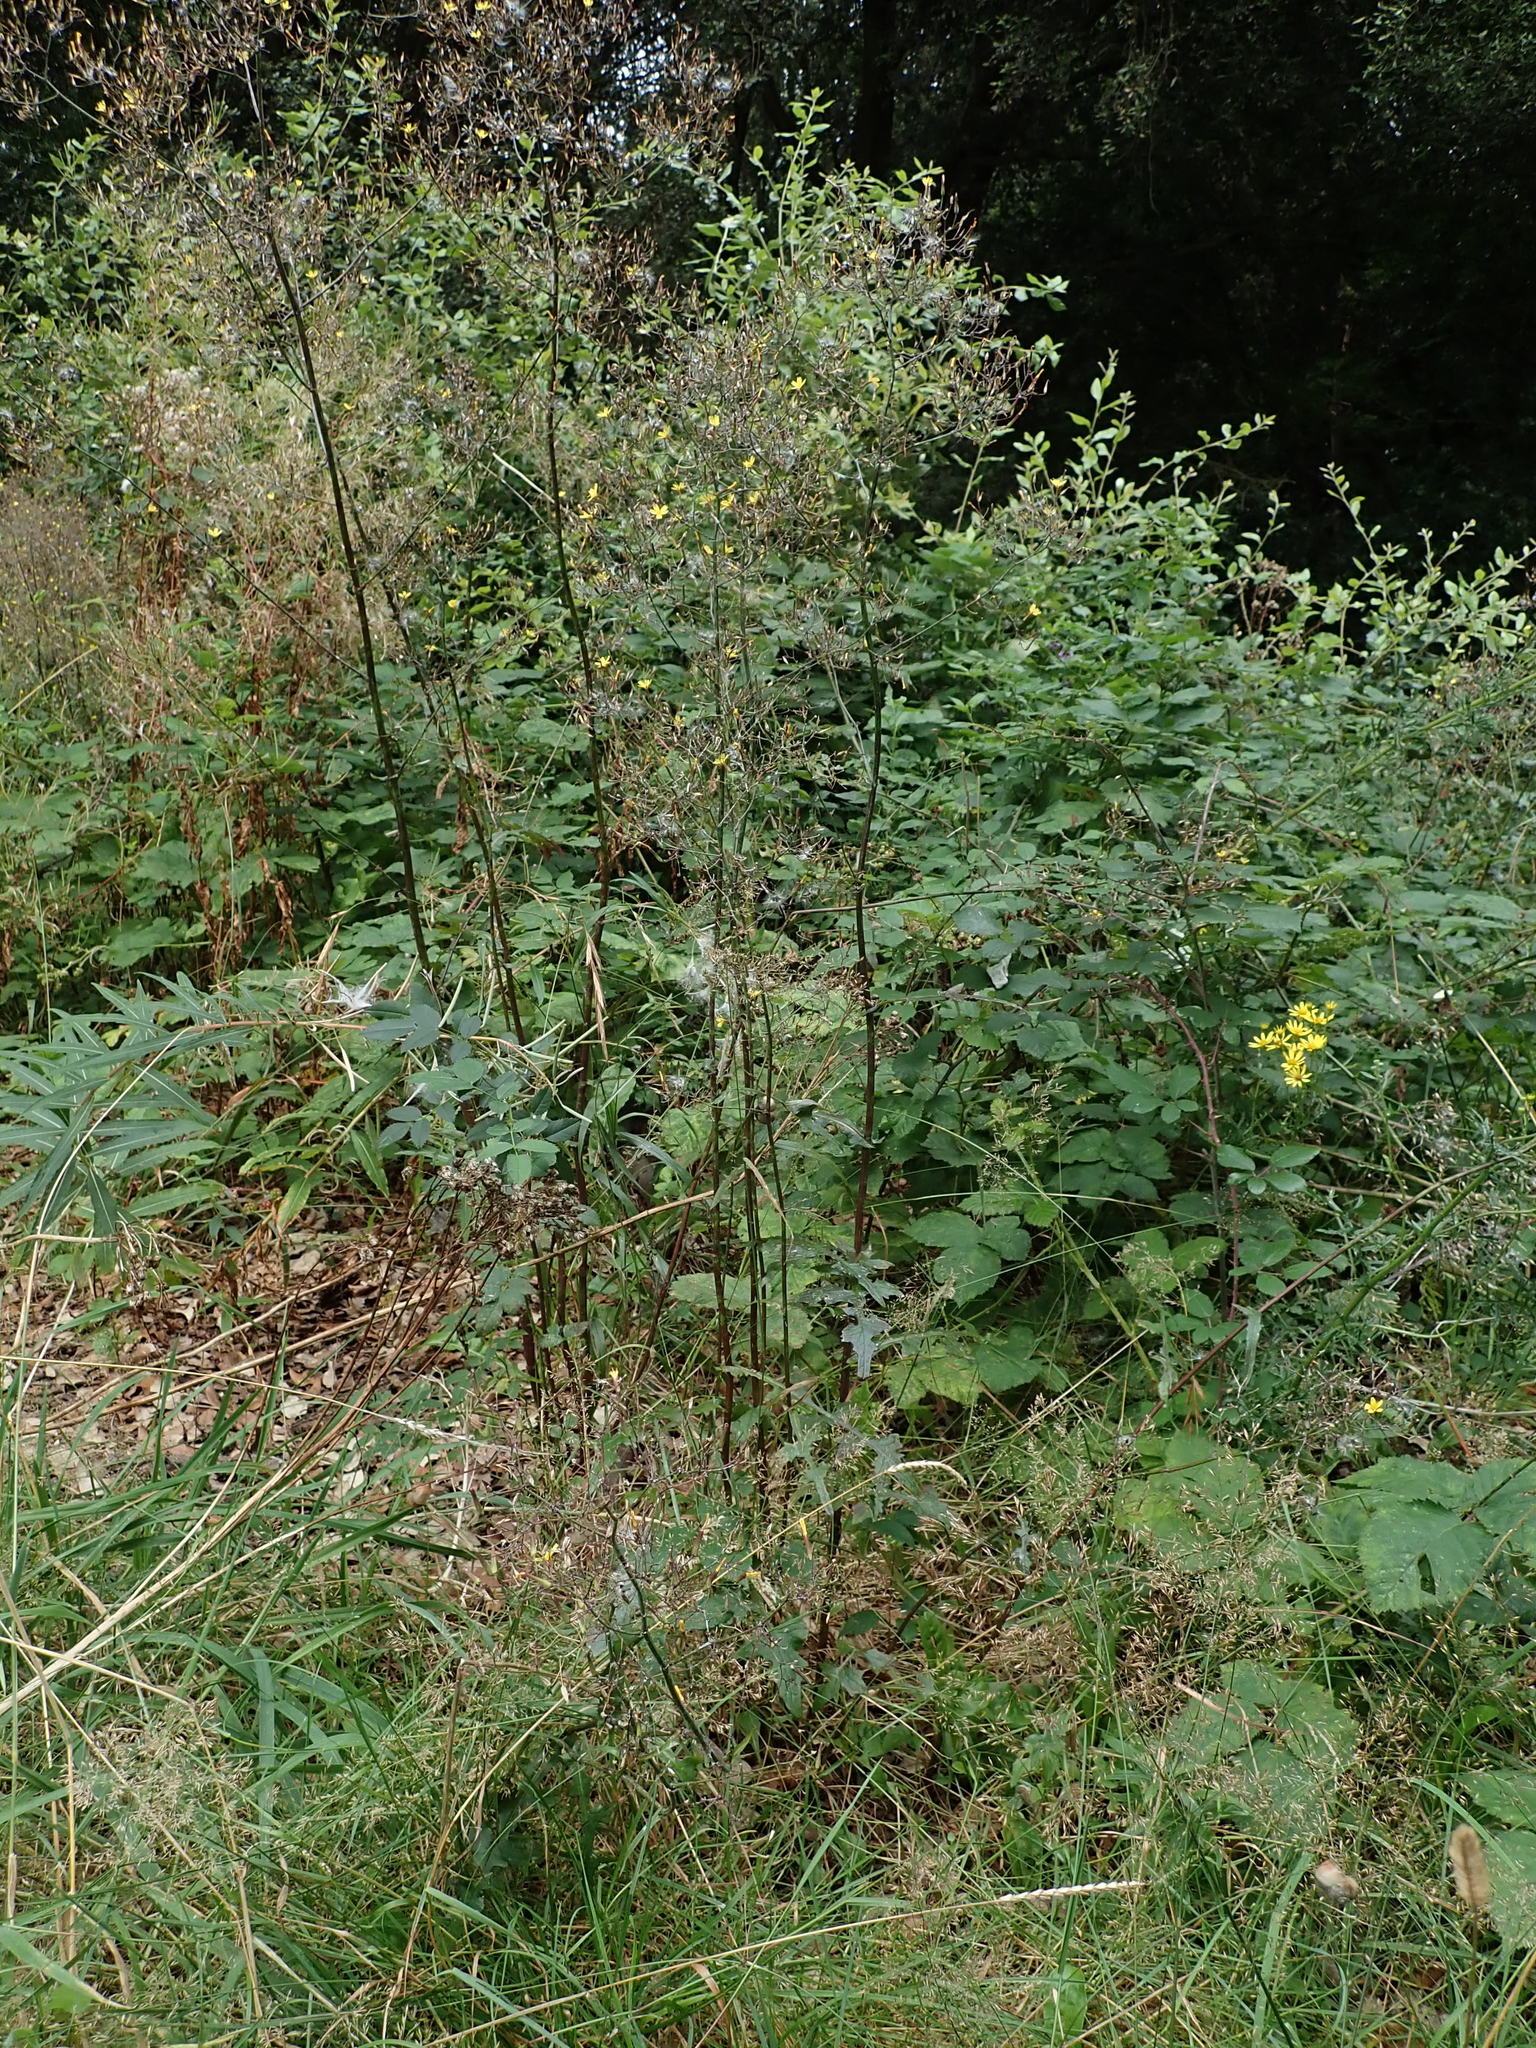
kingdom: Plantae
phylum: Tracheophyta
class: Magnoliopsida
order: Asterales
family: Asteraceae
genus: Mycelis
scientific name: Mycelis muralis
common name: Wall lettuce
